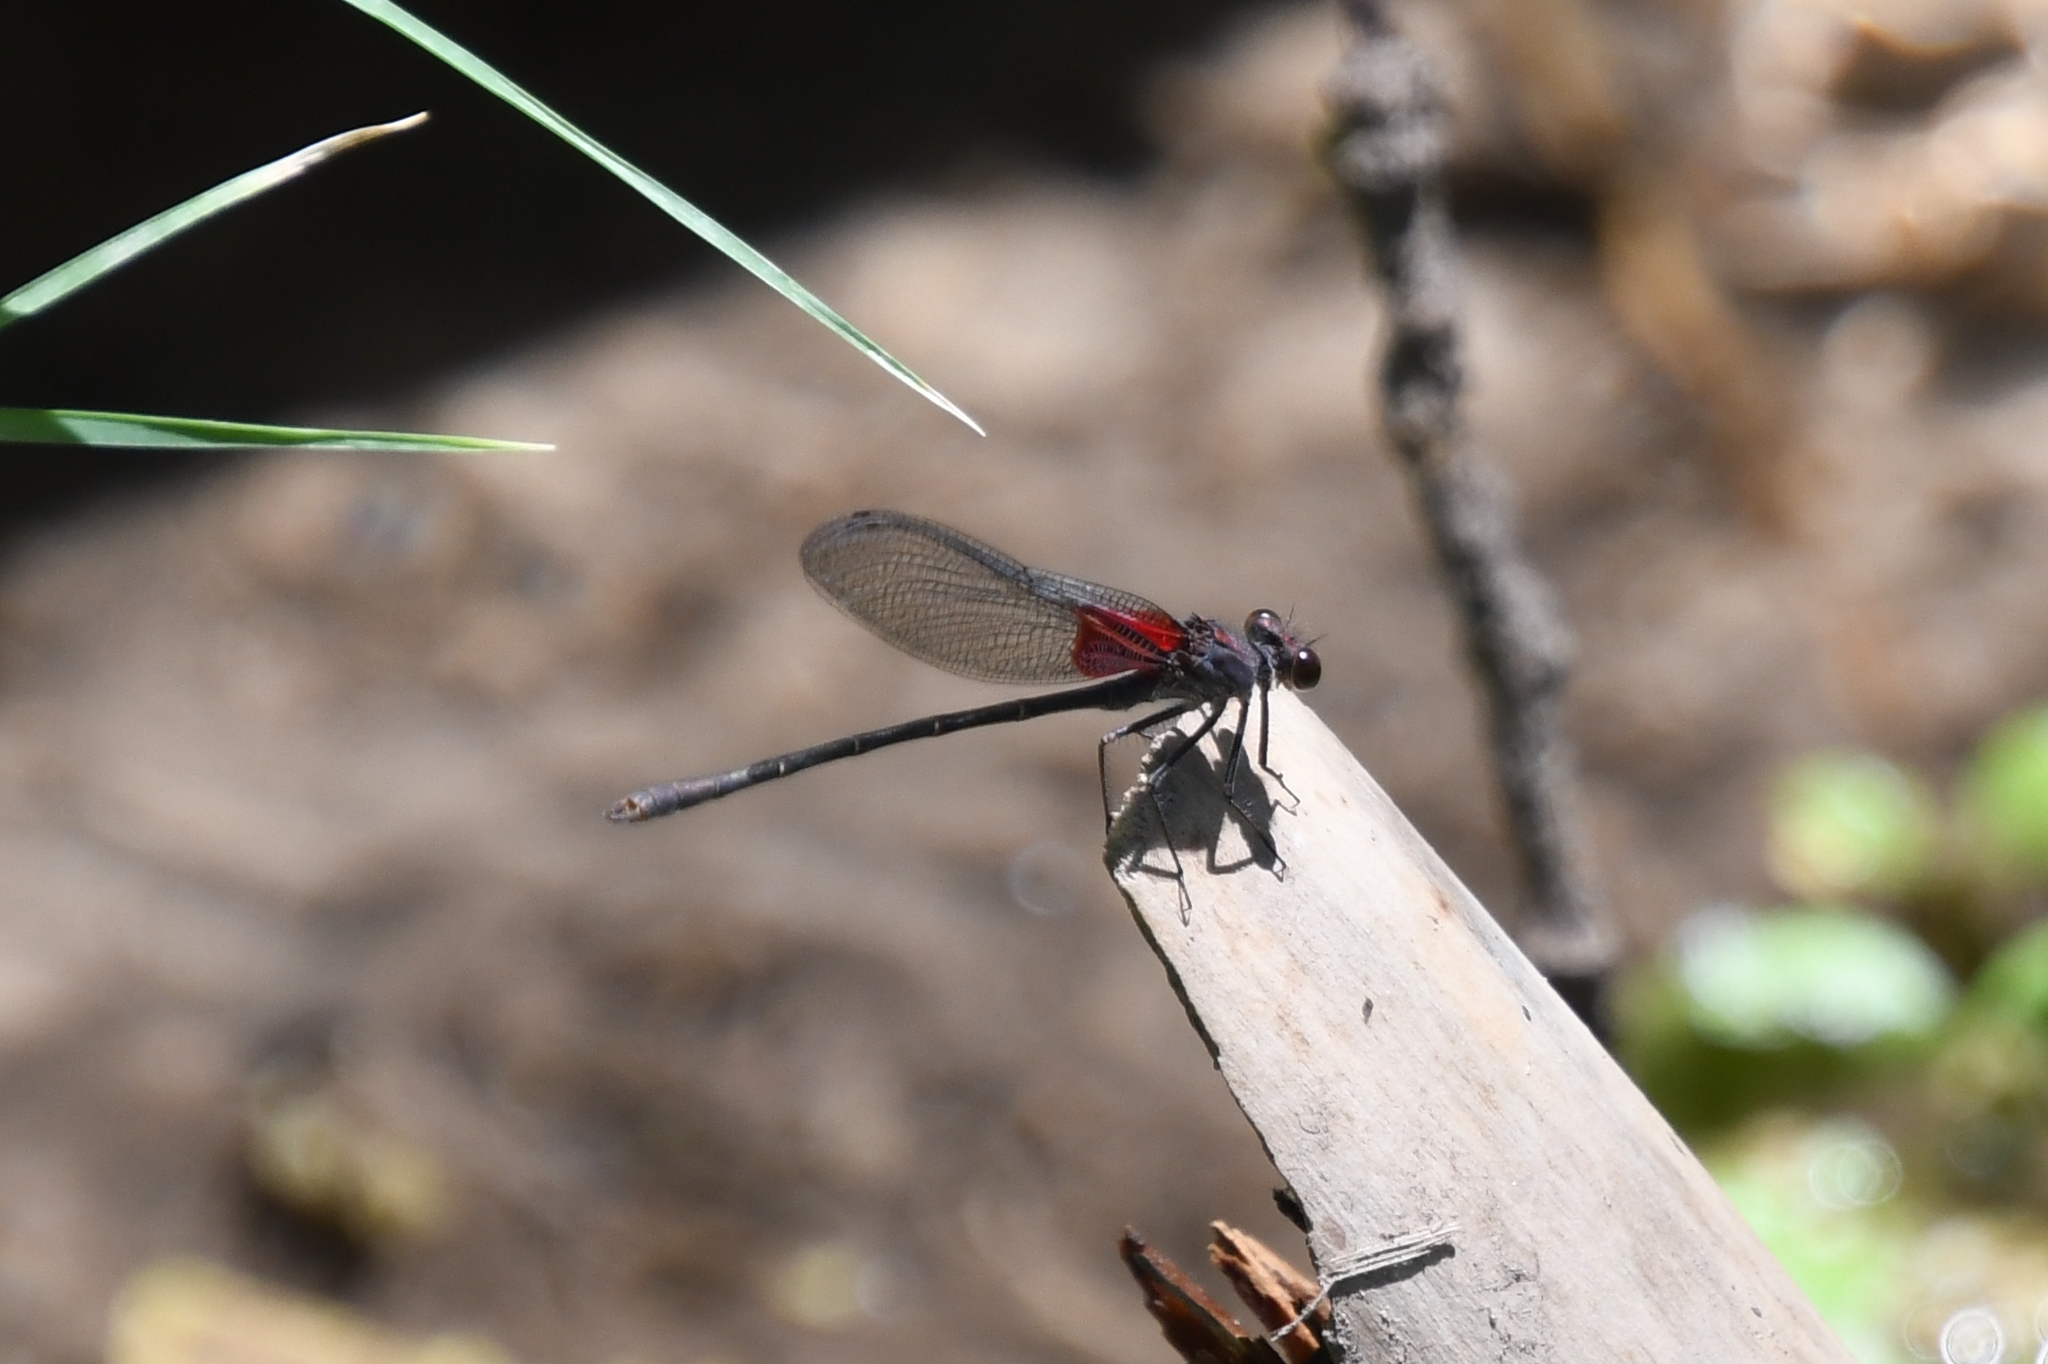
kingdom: Animalia
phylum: Arthropoda
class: Insecta
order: Odonata
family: Calopterygidae
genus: Hetaerina
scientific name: Hetaerina americana
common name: American rubyspot
